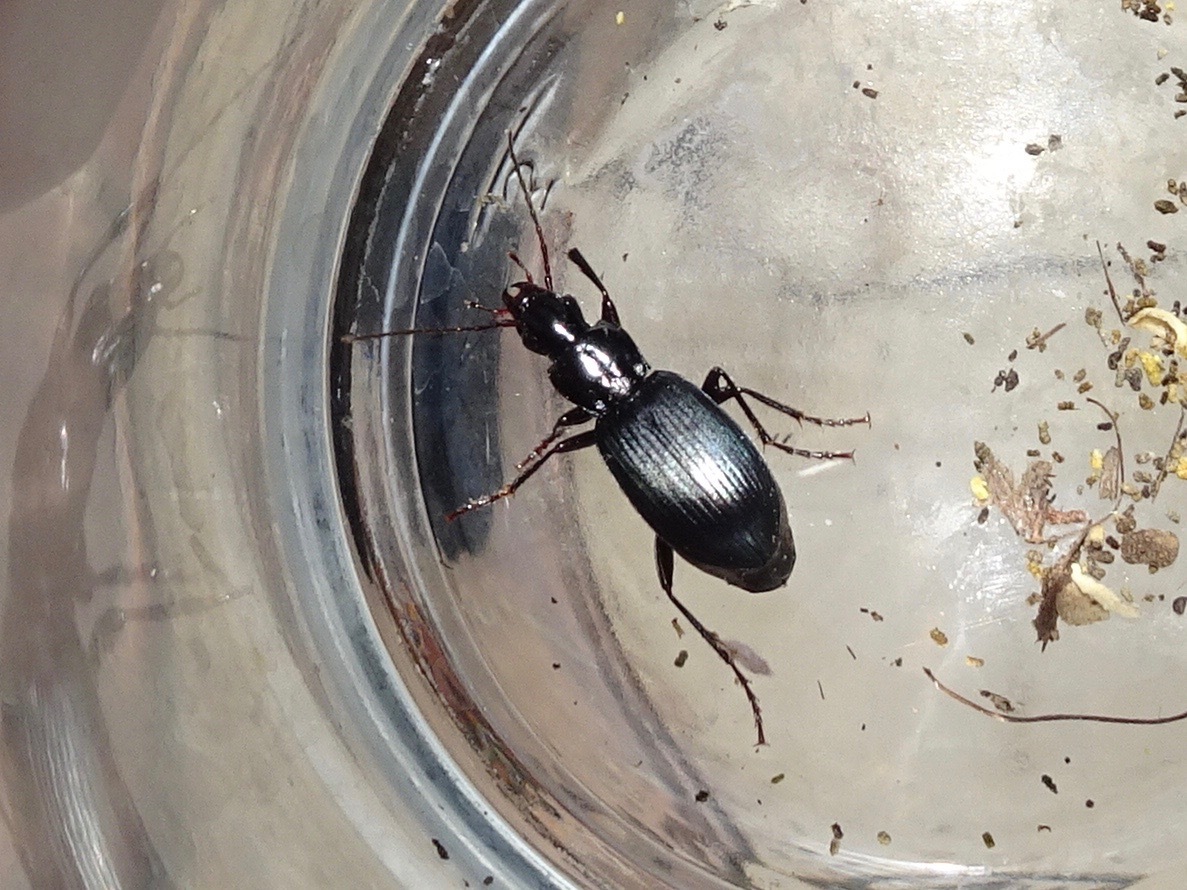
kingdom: Animalia
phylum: Arthropoda
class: Insecta
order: Coleoptera
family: Carabidae
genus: Laemostenus
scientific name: Laemostenus complanatus
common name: Cosmopolitan ground beetle
